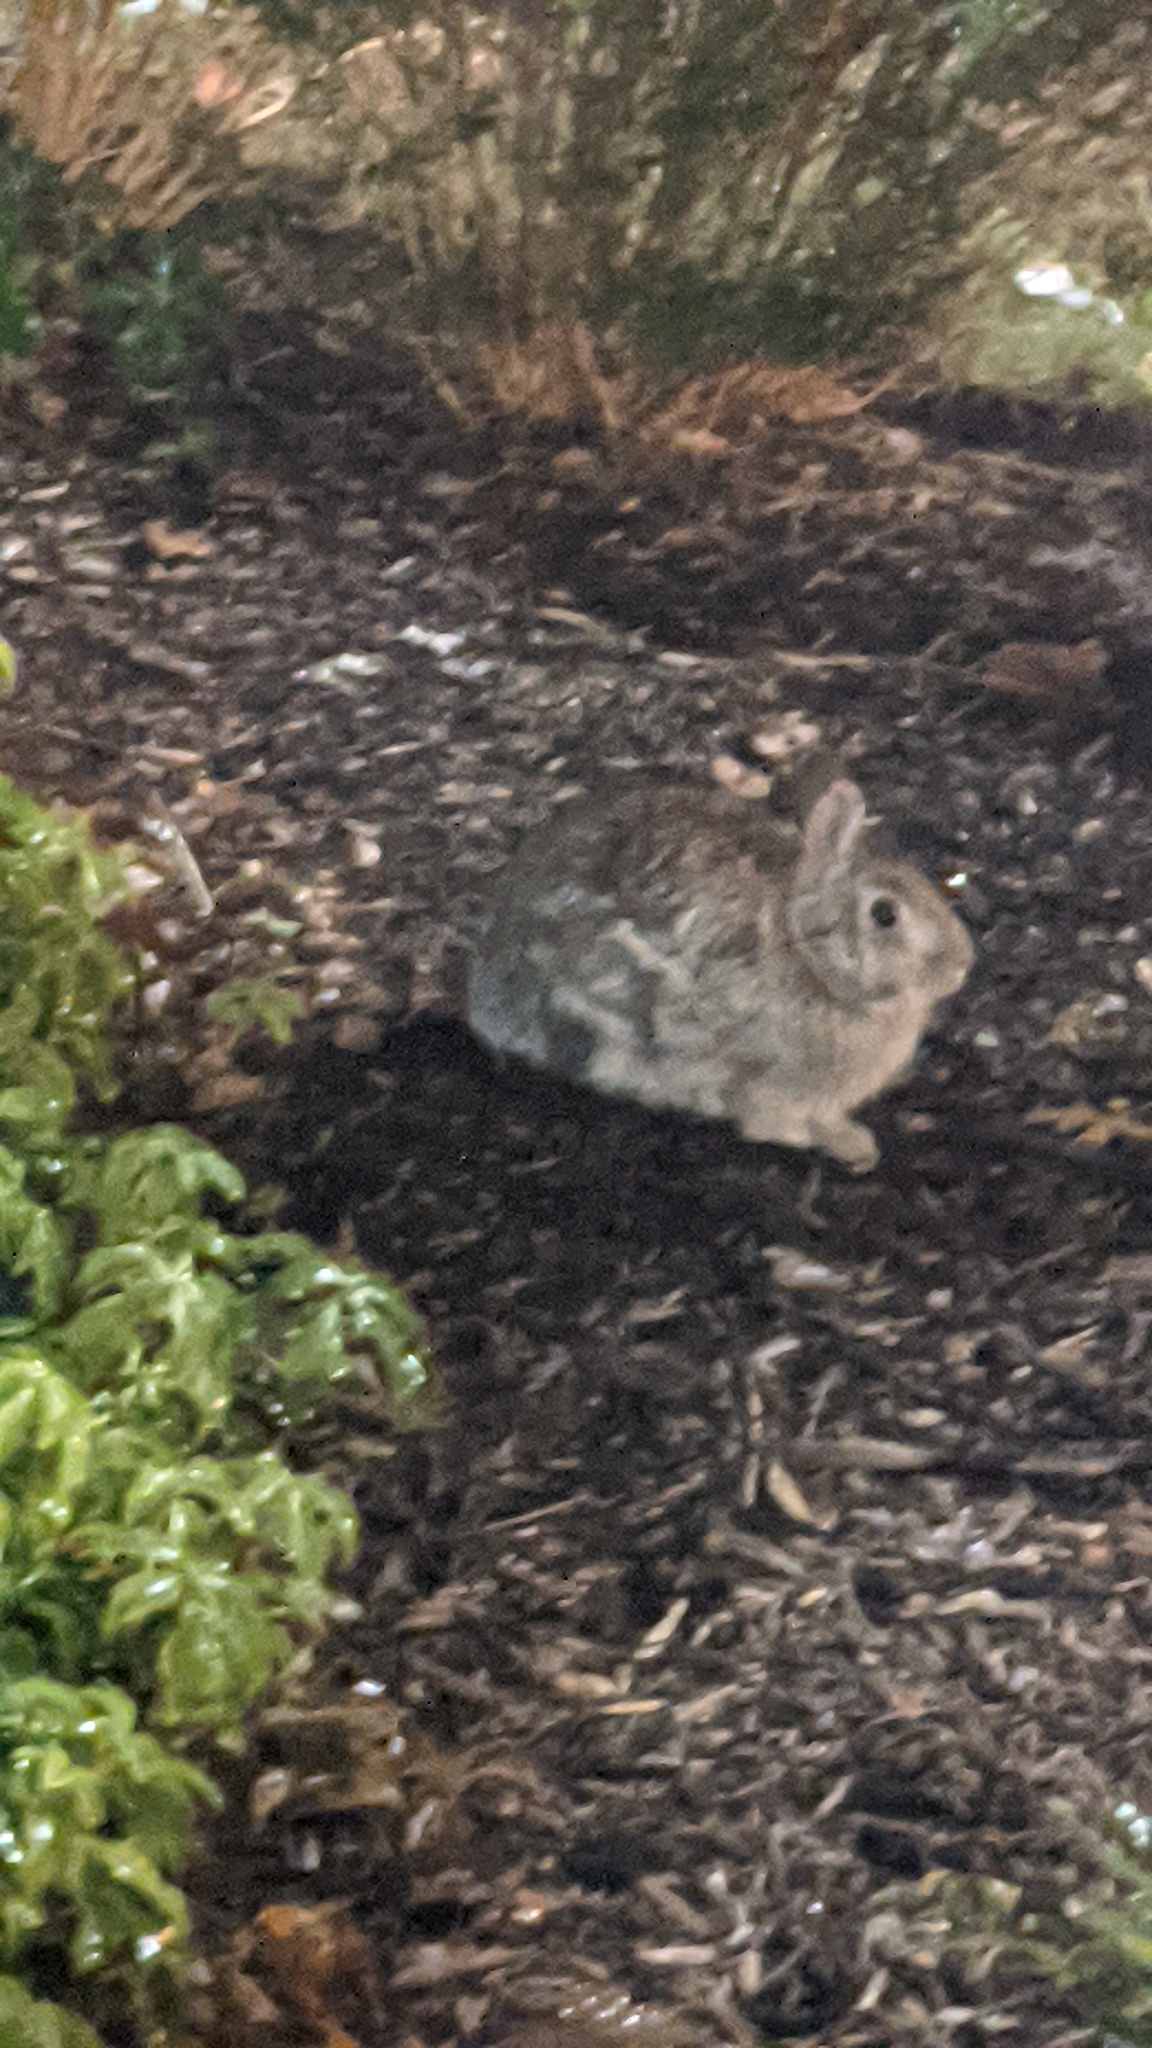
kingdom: Animalia
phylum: Chordata
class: Mammalia
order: Lagomorpha
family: Leporidae
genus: Sylvilagus
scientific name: Sylvilagus floridanus
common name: Eastern cottontail
